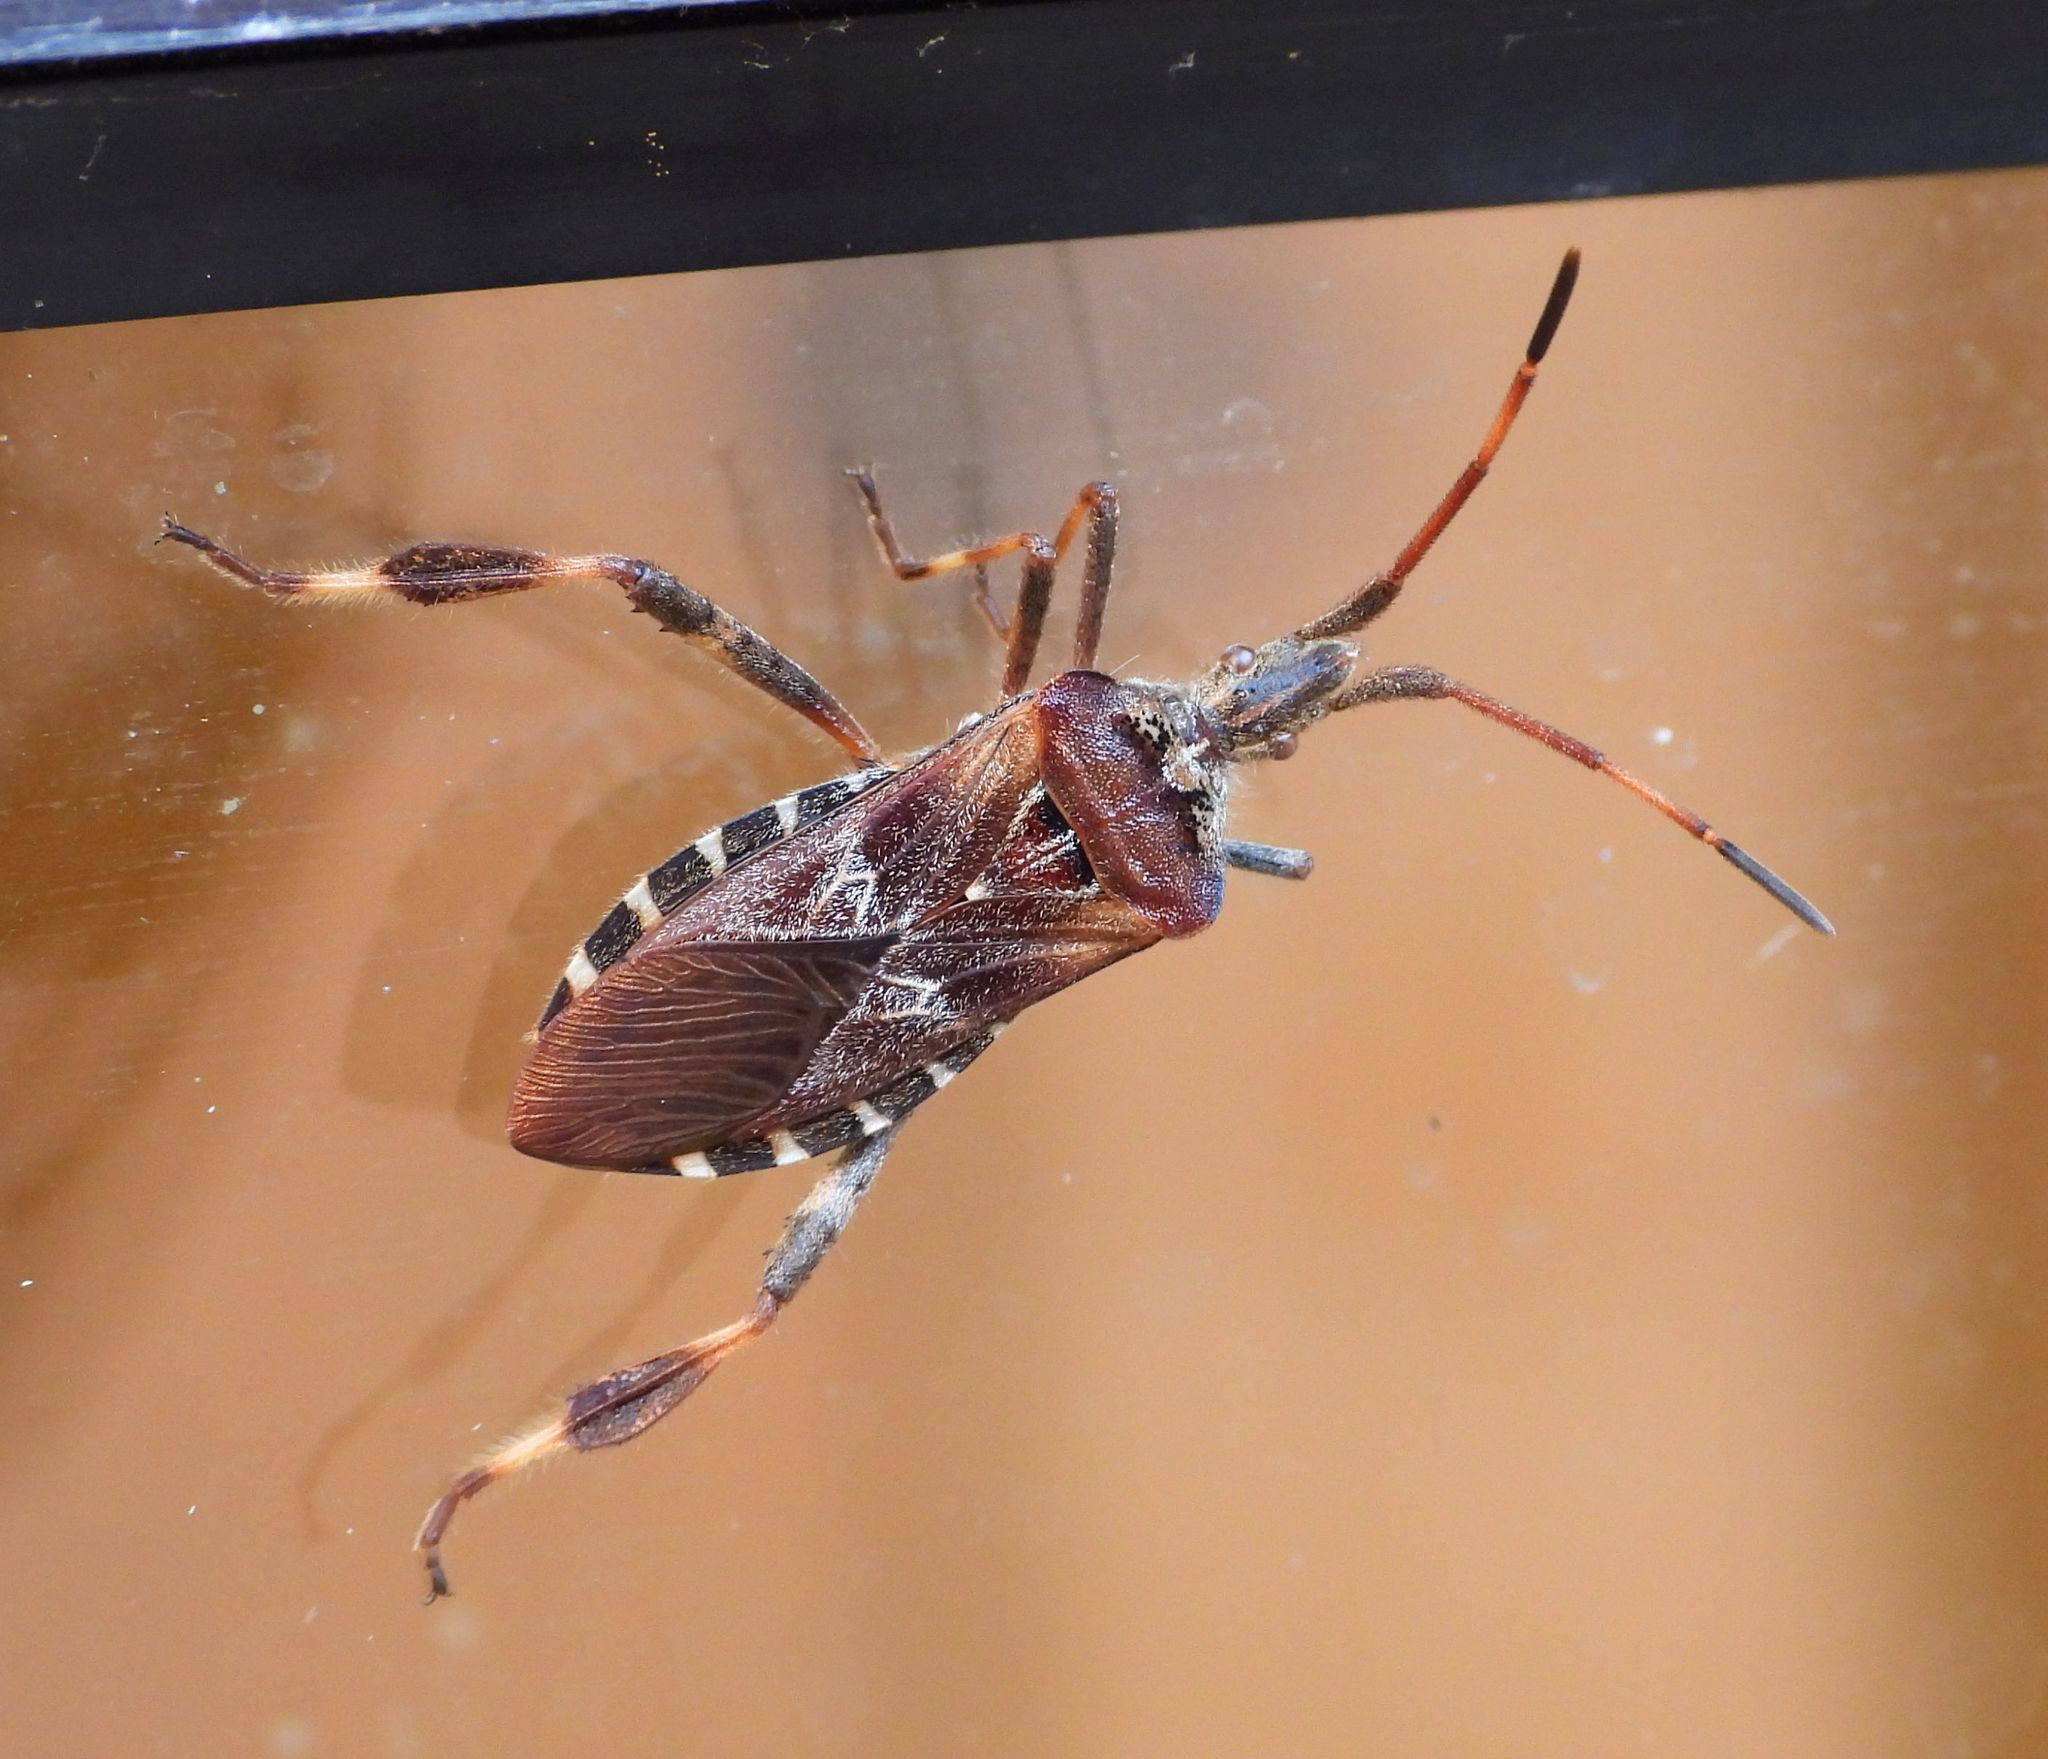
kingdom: Animalia
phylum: Arthropoda
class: Insecta
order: Hemiptera
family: Coreidae
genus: Leptoglossus
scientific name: Leptoglossus occidentalis
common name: Western conifer-seed bug
